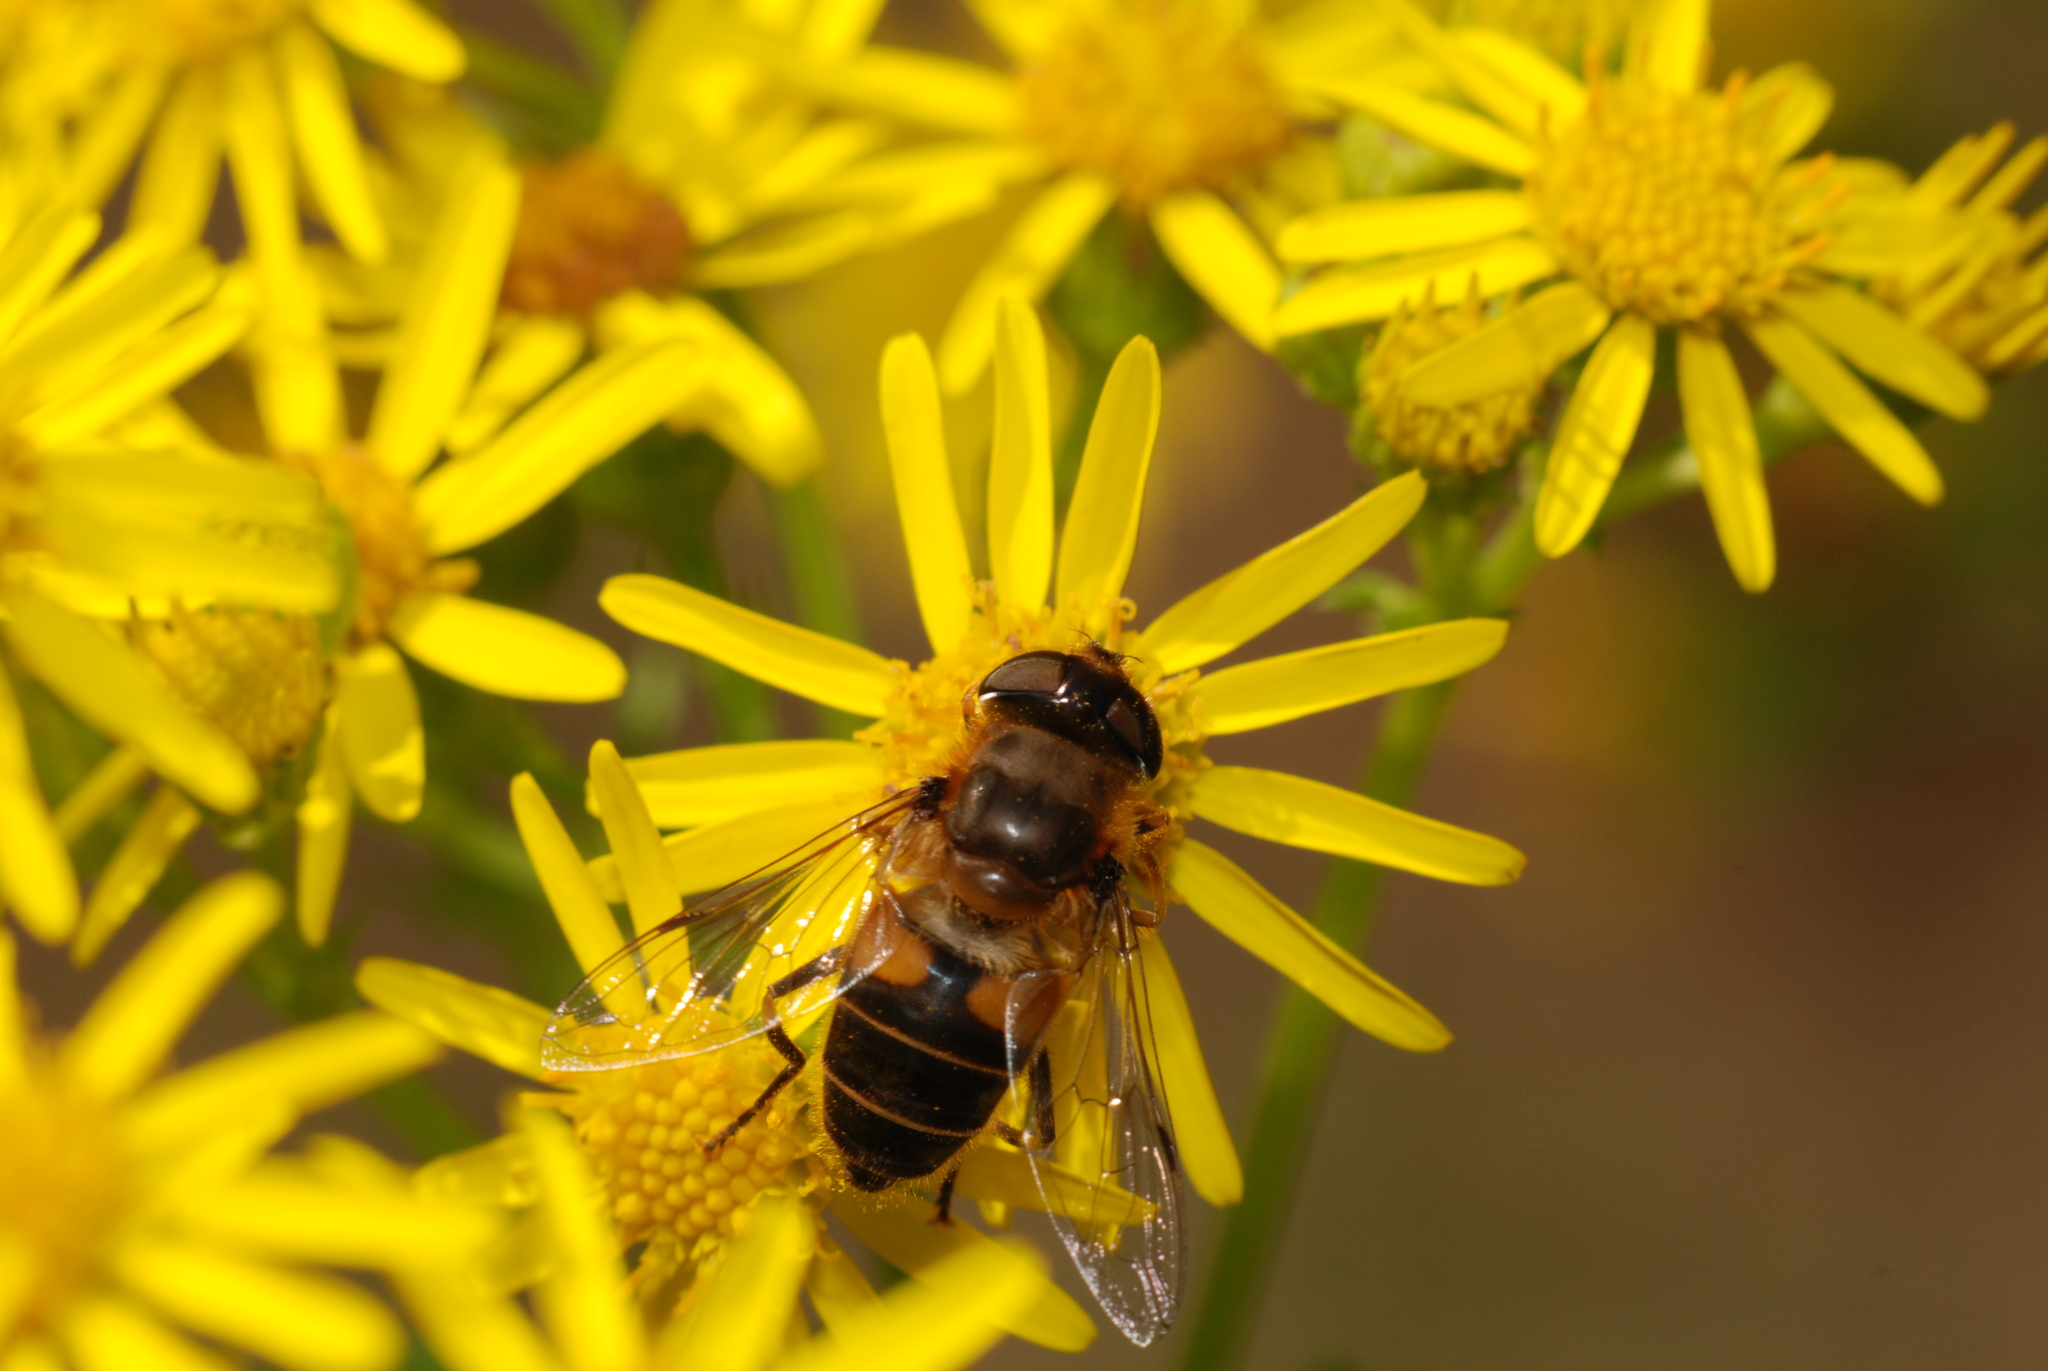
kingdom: Animalia
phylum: Arthropoda
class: Insecta
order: Diptera
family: Syrphidae
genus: Eristalis
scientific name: Eristalis
